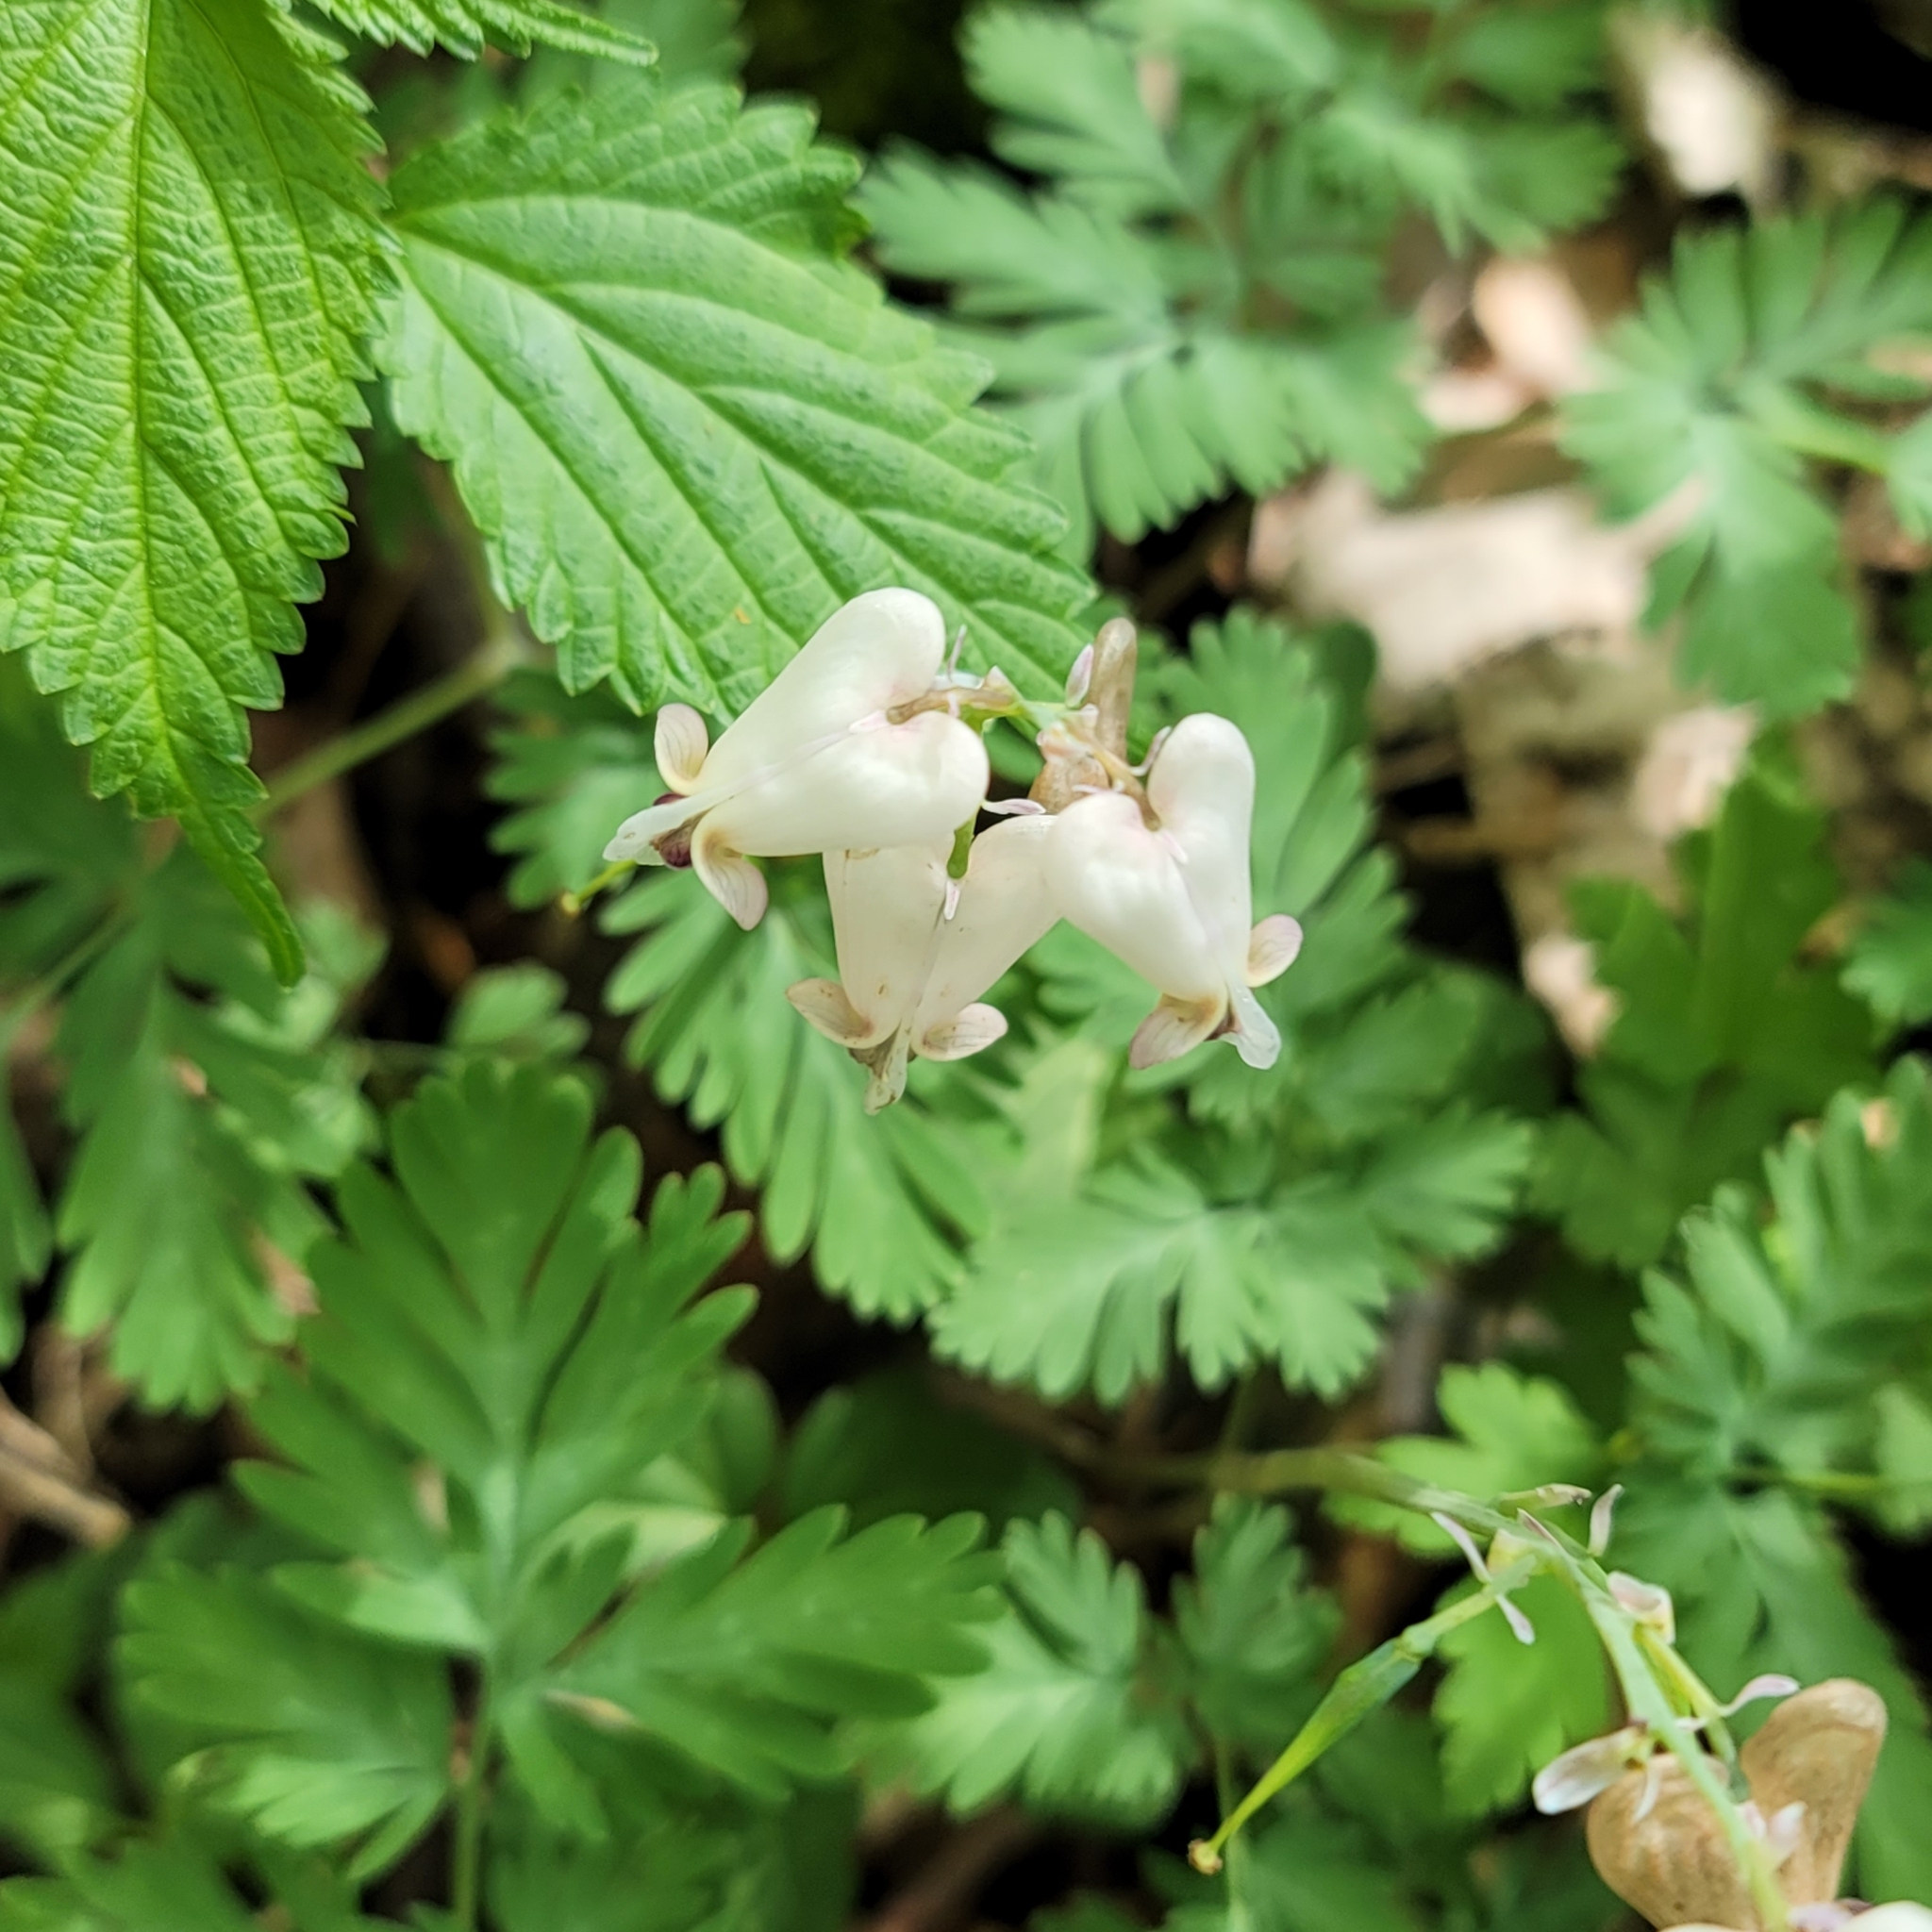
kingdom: Plantae
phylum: Tracheophyta
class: Magnoliopsida
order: Ranunculales
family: Papaveraceae
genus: Dicentra
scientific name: Dicentra canadensis
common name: Squirrel-corn
